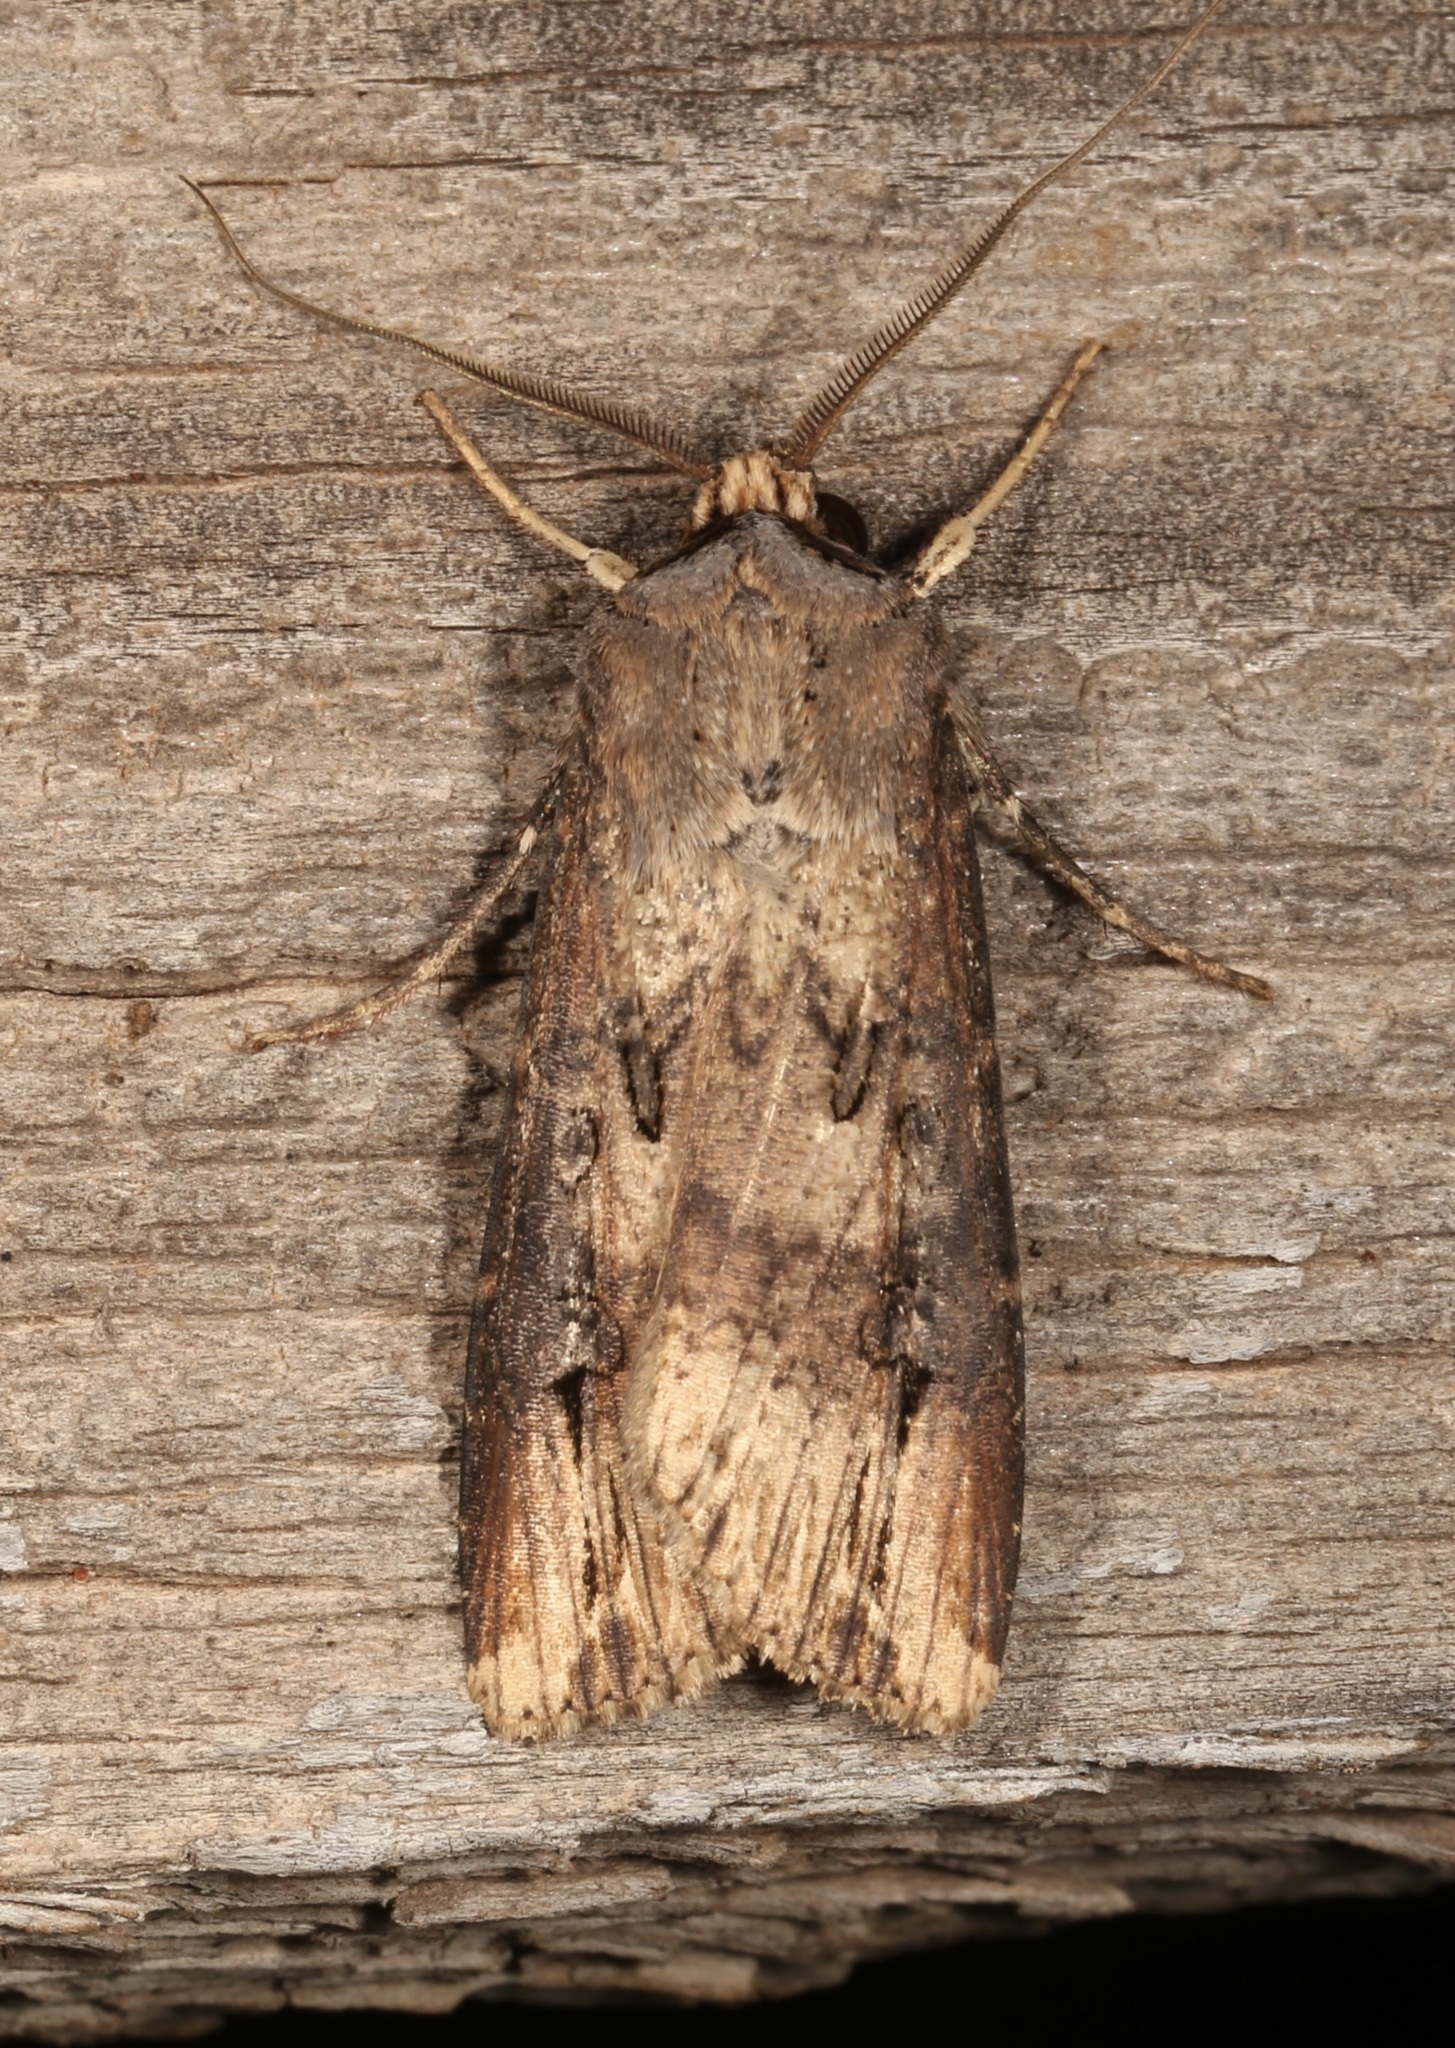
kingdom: Animalia
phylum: Arthropoda
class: Insecta
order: Lepidoptera
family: Noctuidae
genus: Agrotis
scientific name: Agrotis ipsilon
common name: Dark sword-grass
